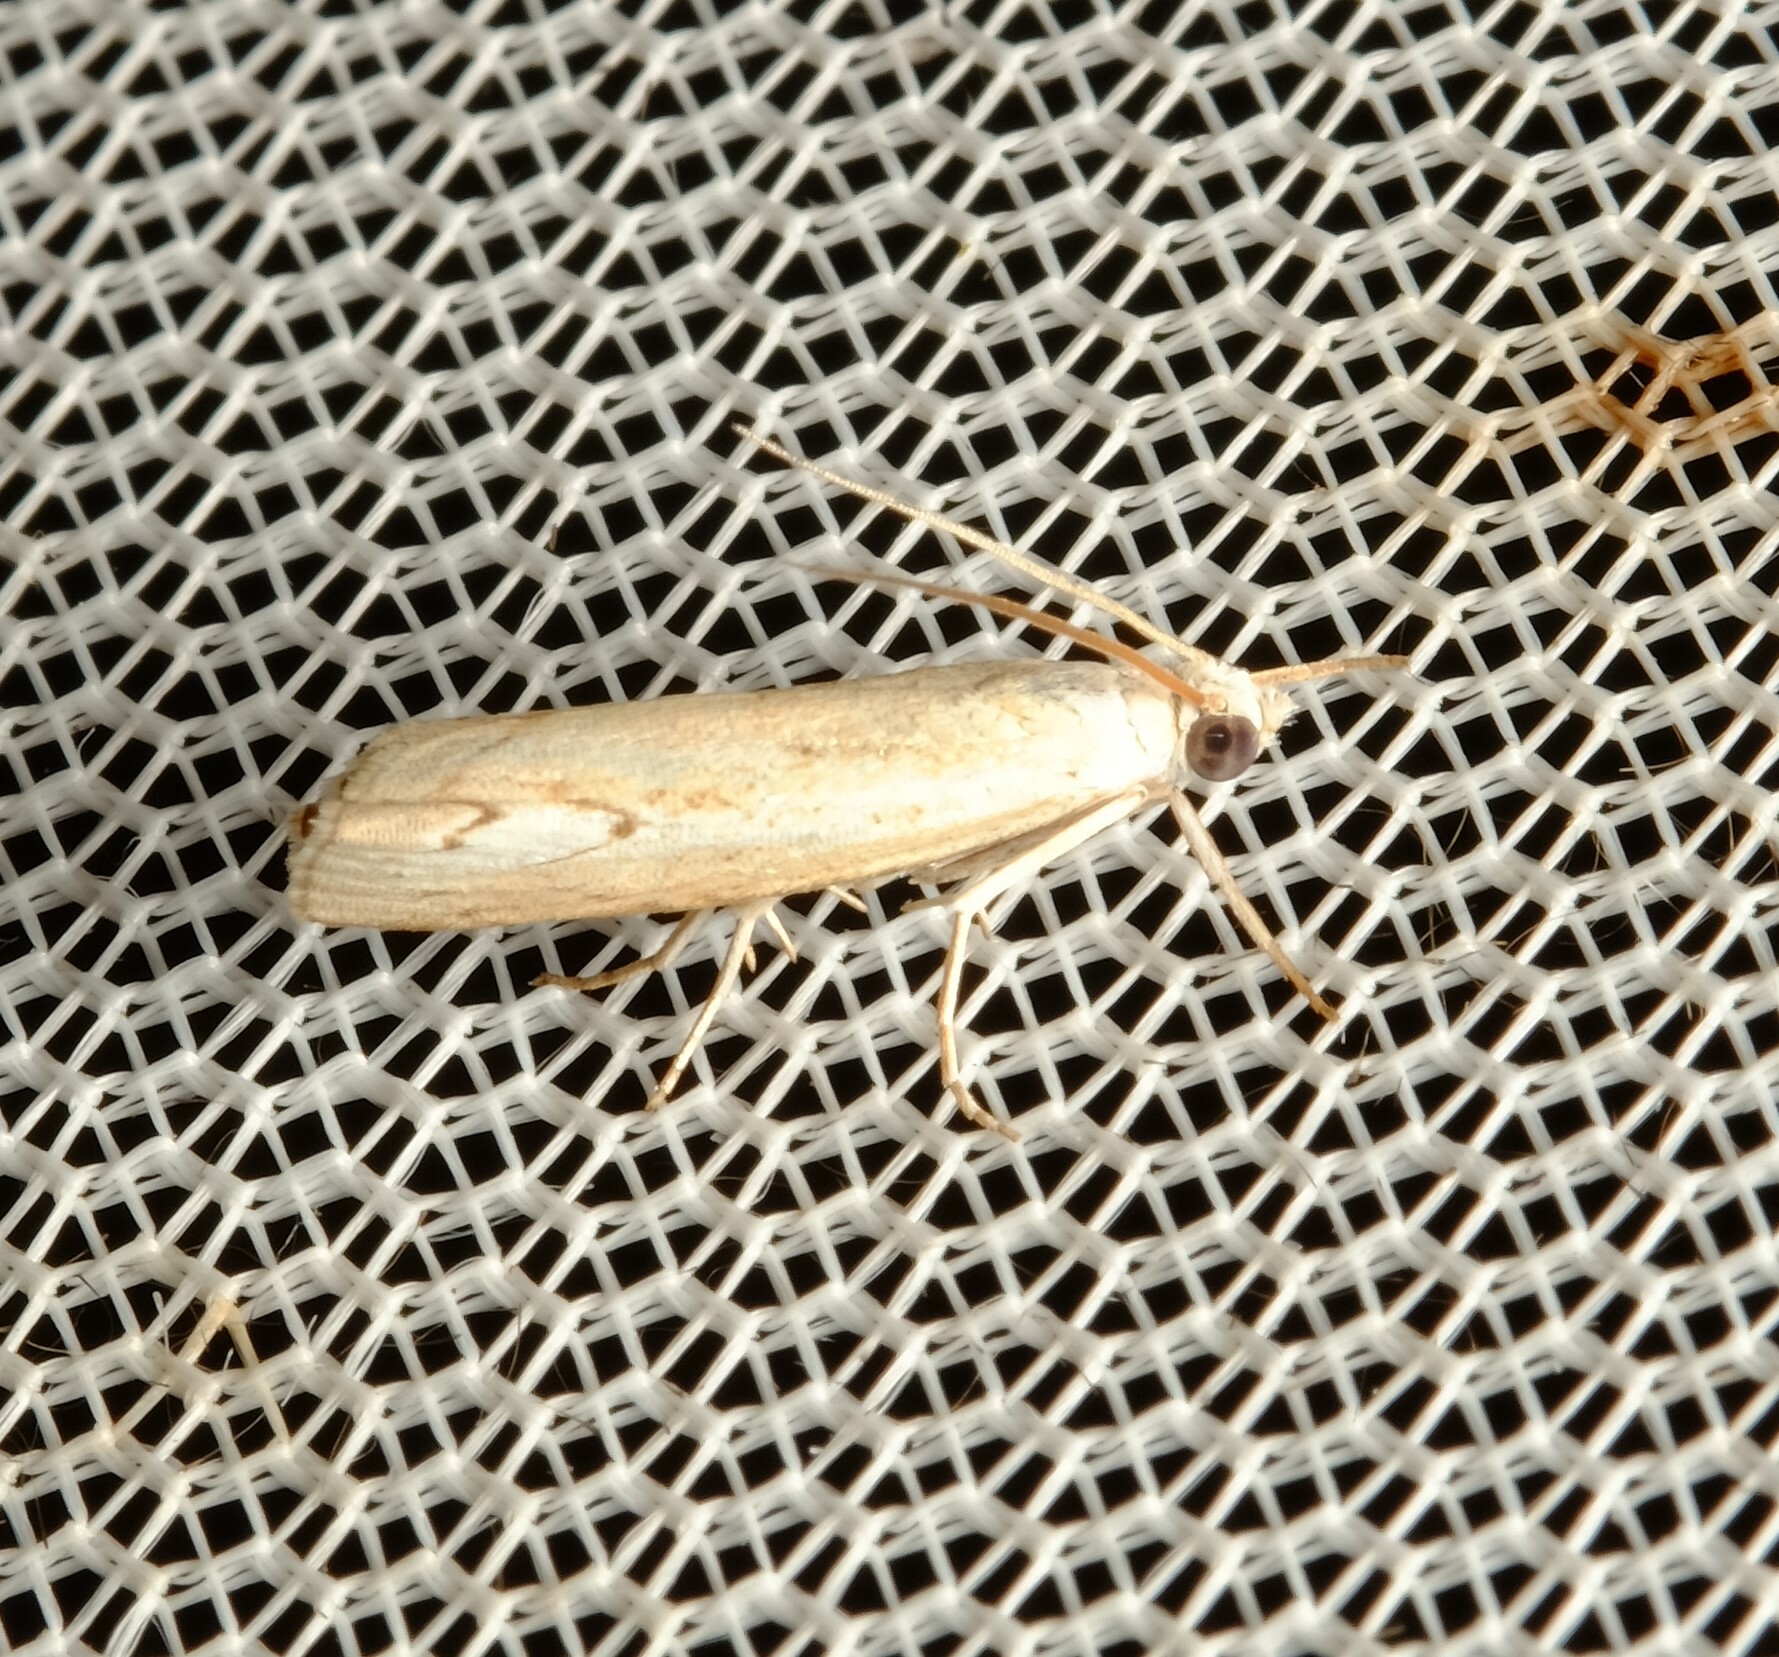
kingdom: Animalia
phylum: Arthropoda
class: Insecta
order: Lepidoptera
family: Crambidae
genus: Culladia
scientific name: Culladia cuneiferellus
